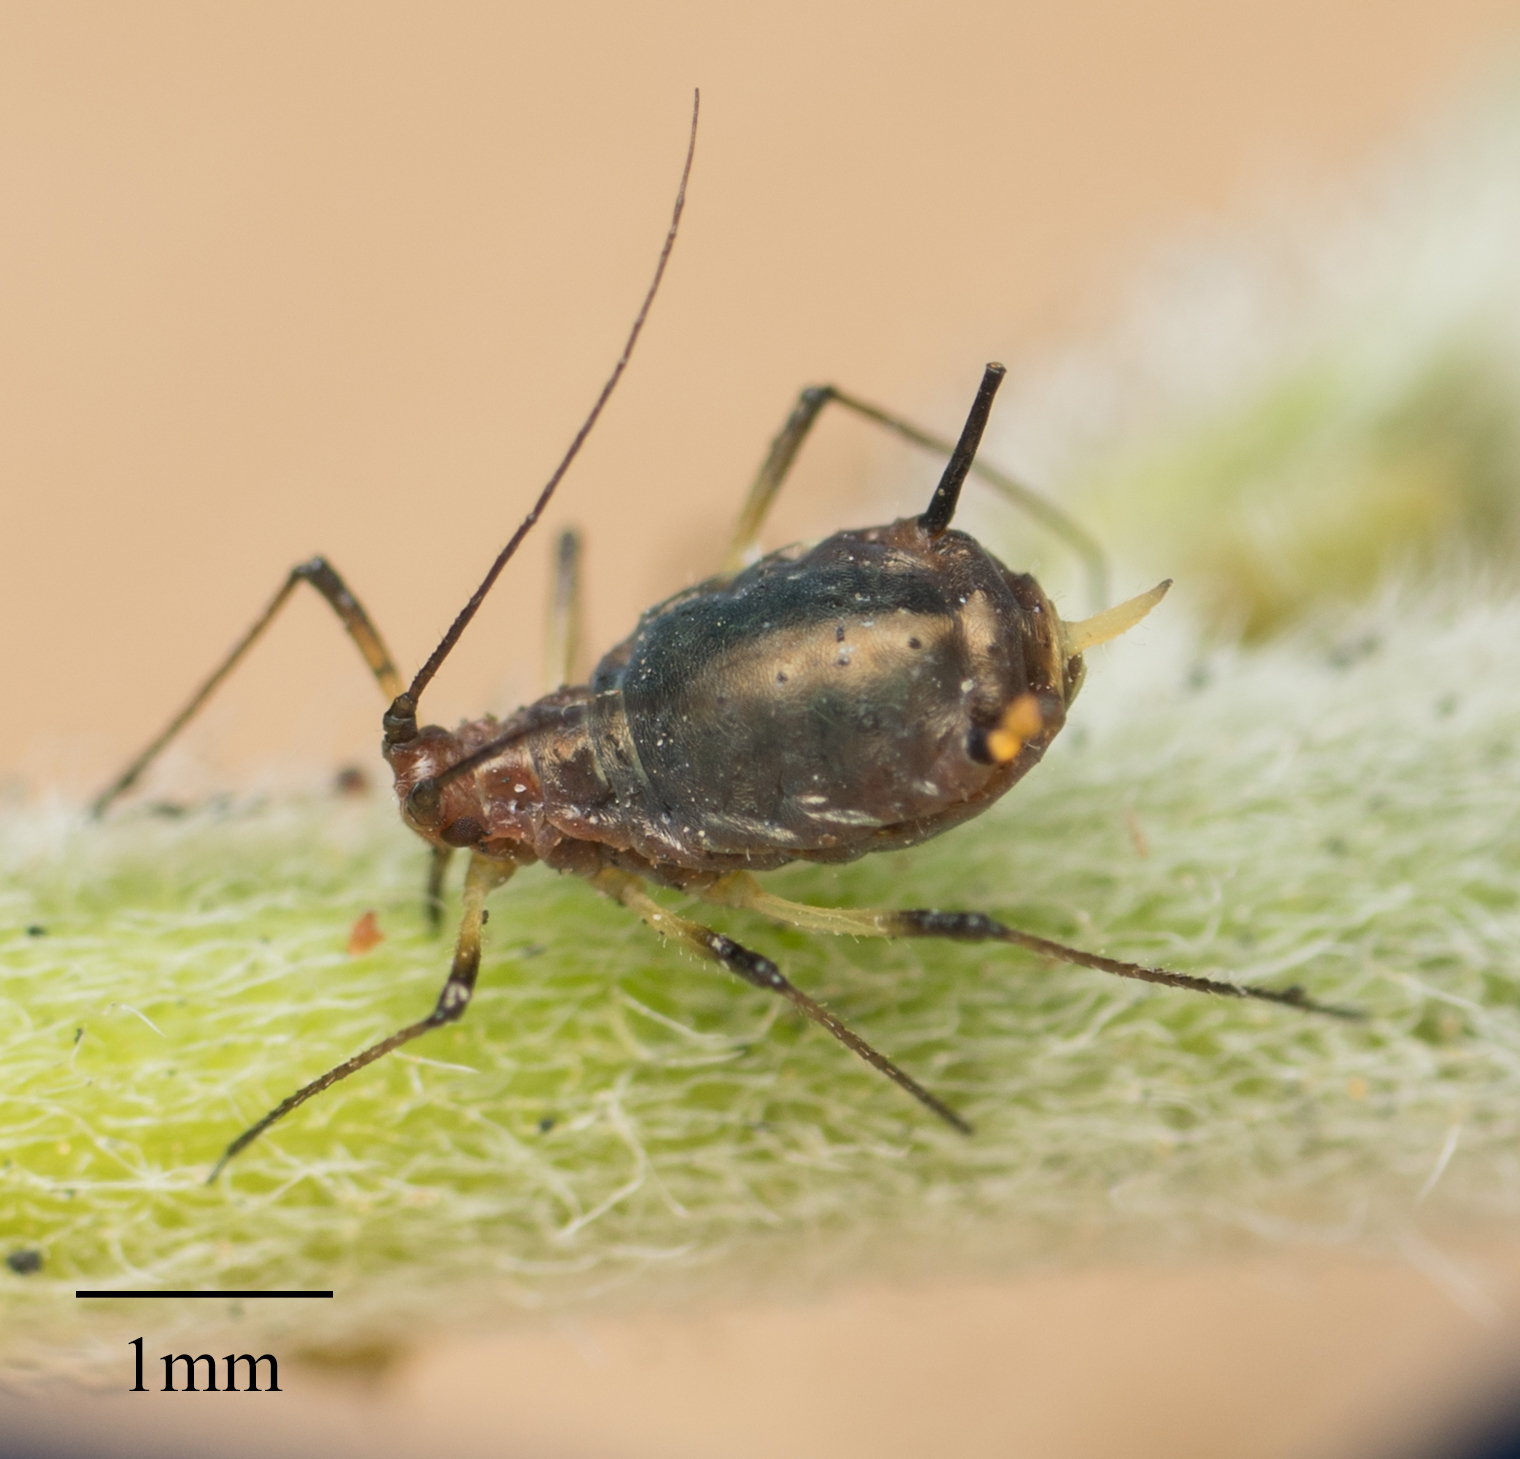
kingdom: Animalia
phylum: Arthropoda
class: Insecta
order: Hemiptera
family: Aphididae
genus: Uroleucon
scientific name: Uroleucon ambrosiae
